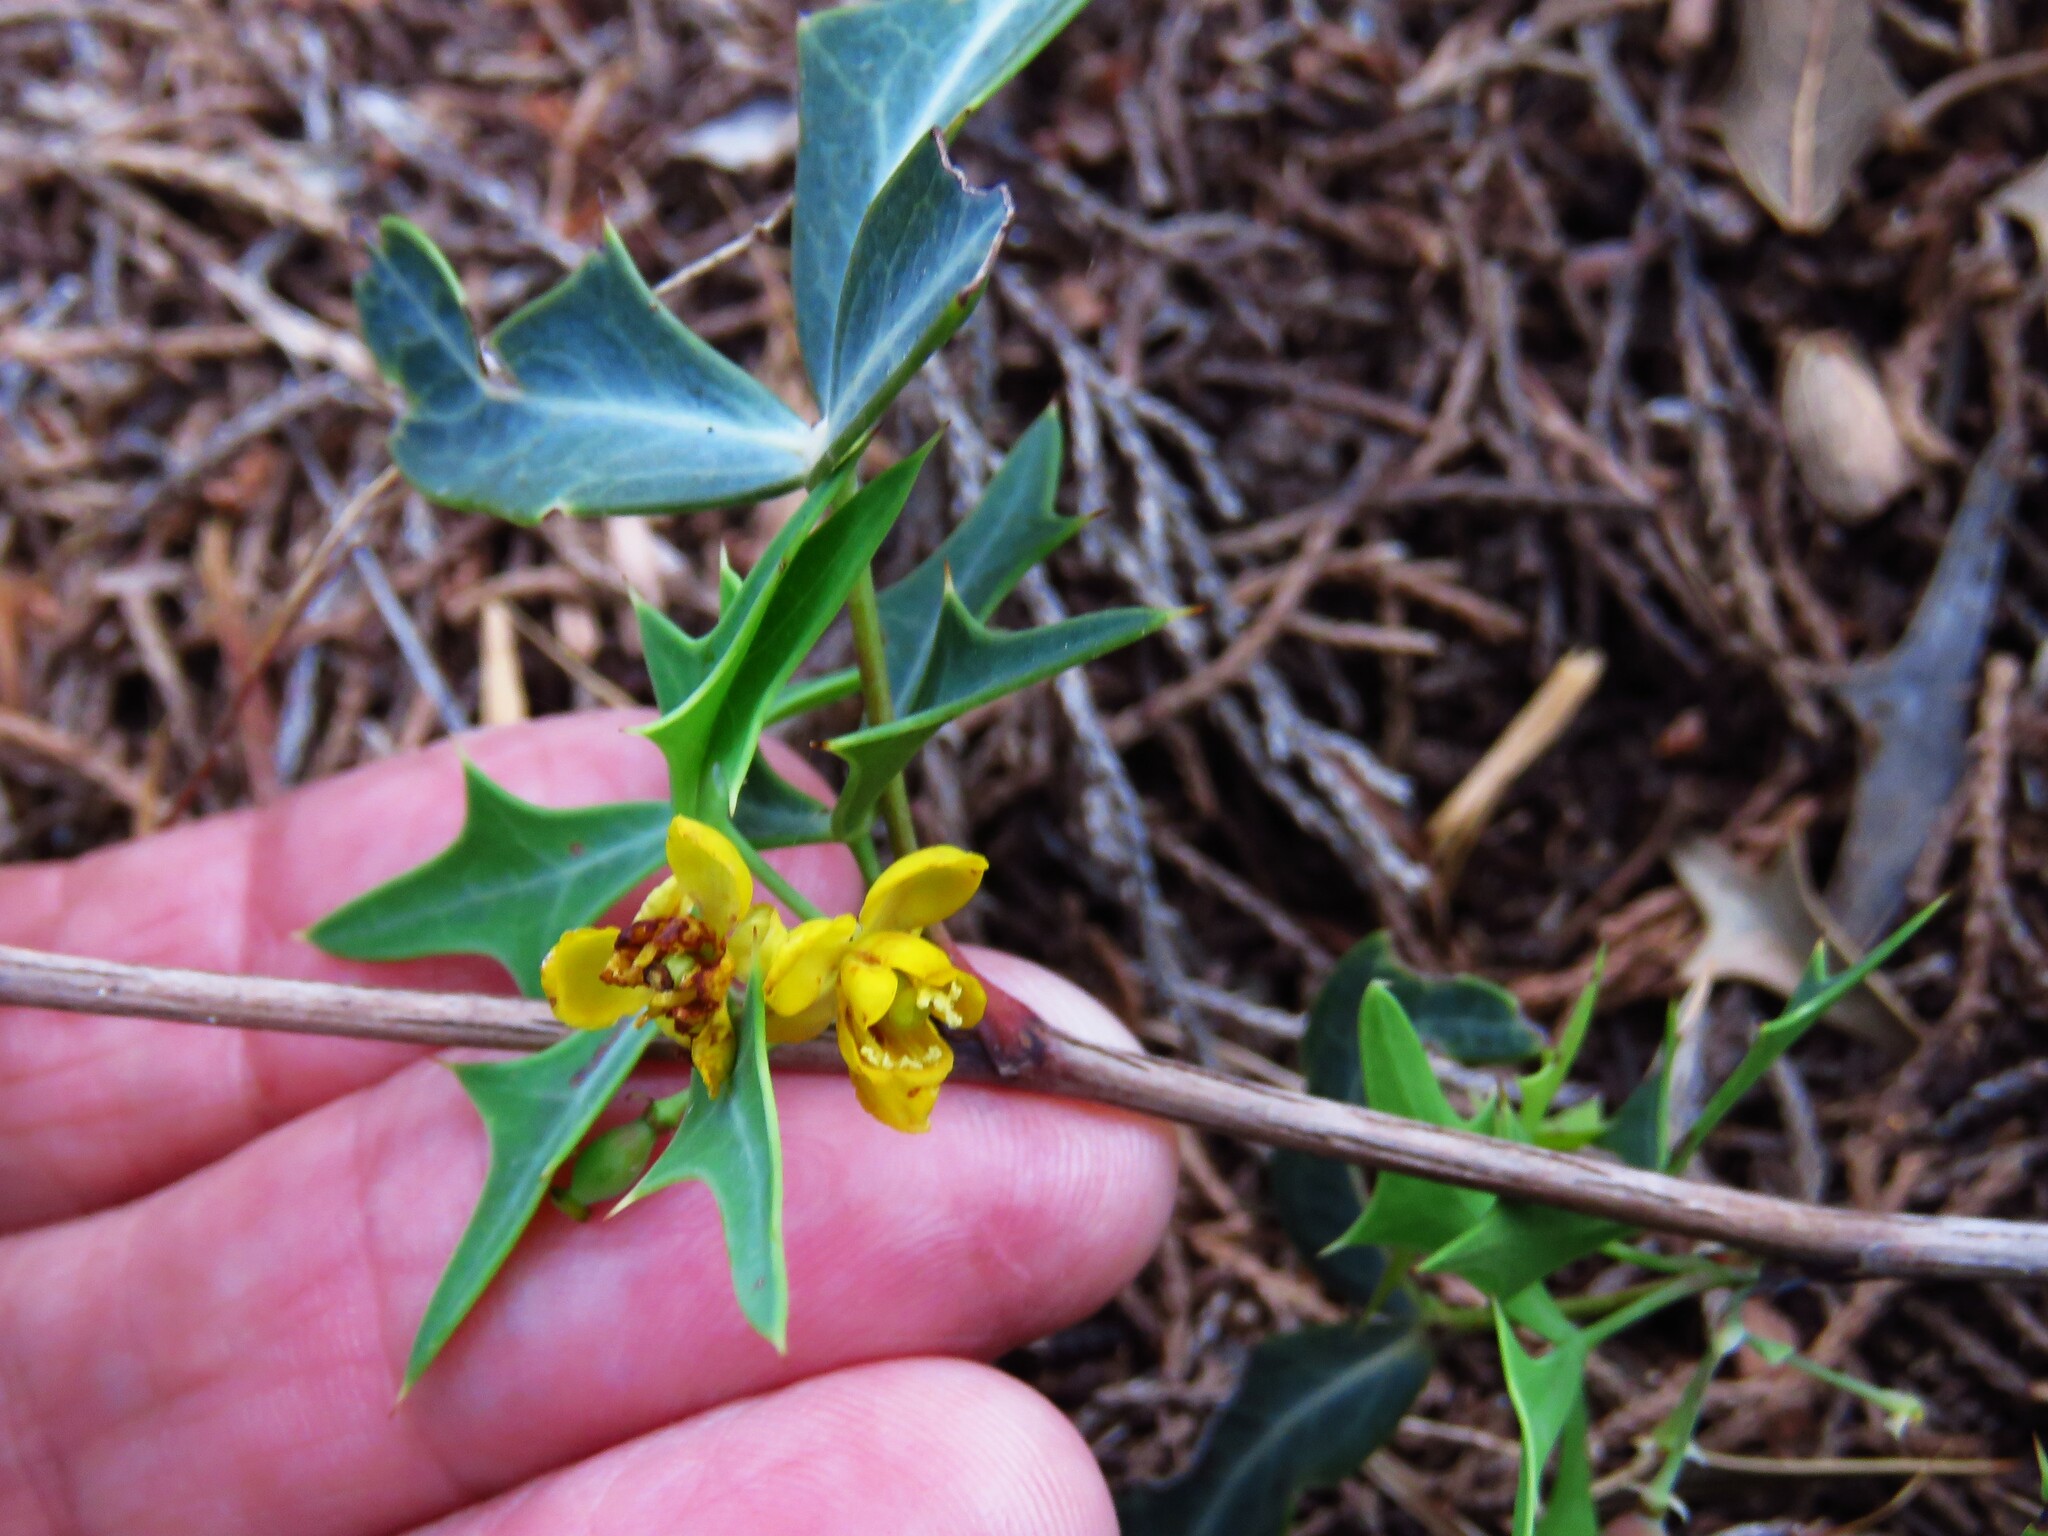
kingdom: Plantae
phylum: Tracheophyta
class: Magnoliopsida
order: Ranunculales
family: Berberidaceae
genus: Alloberberis
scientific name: Alloberberis trifoliolata
